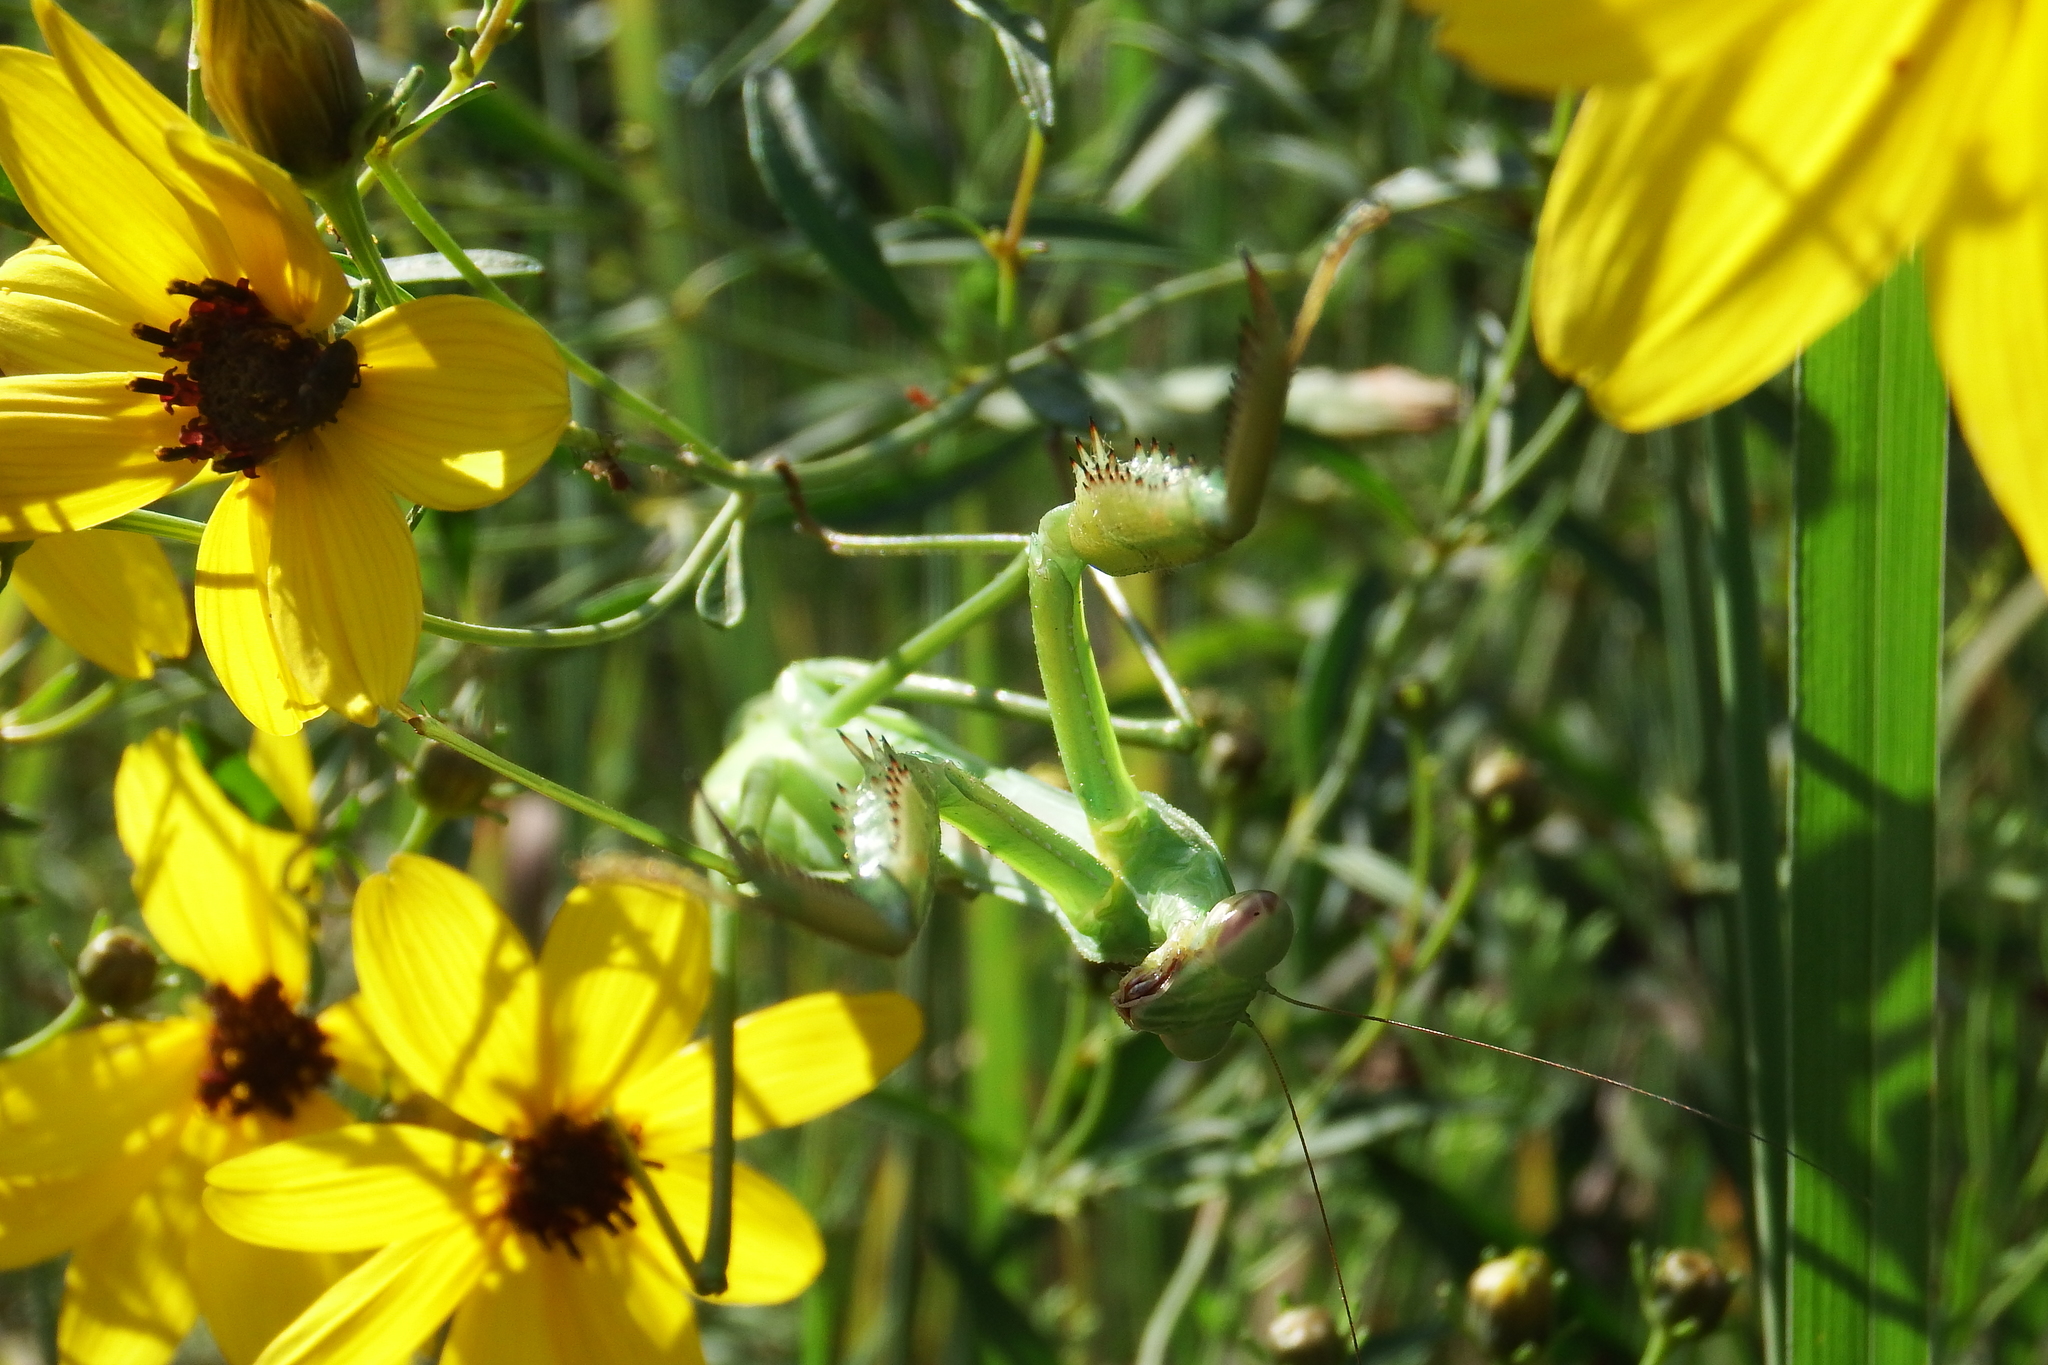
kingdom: Animalia
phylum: Arthropoda
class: Insecta
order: Mantodea
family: Mantidae
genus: Tenodera
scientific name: Tenodera sinensis
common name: Chinese mantis
